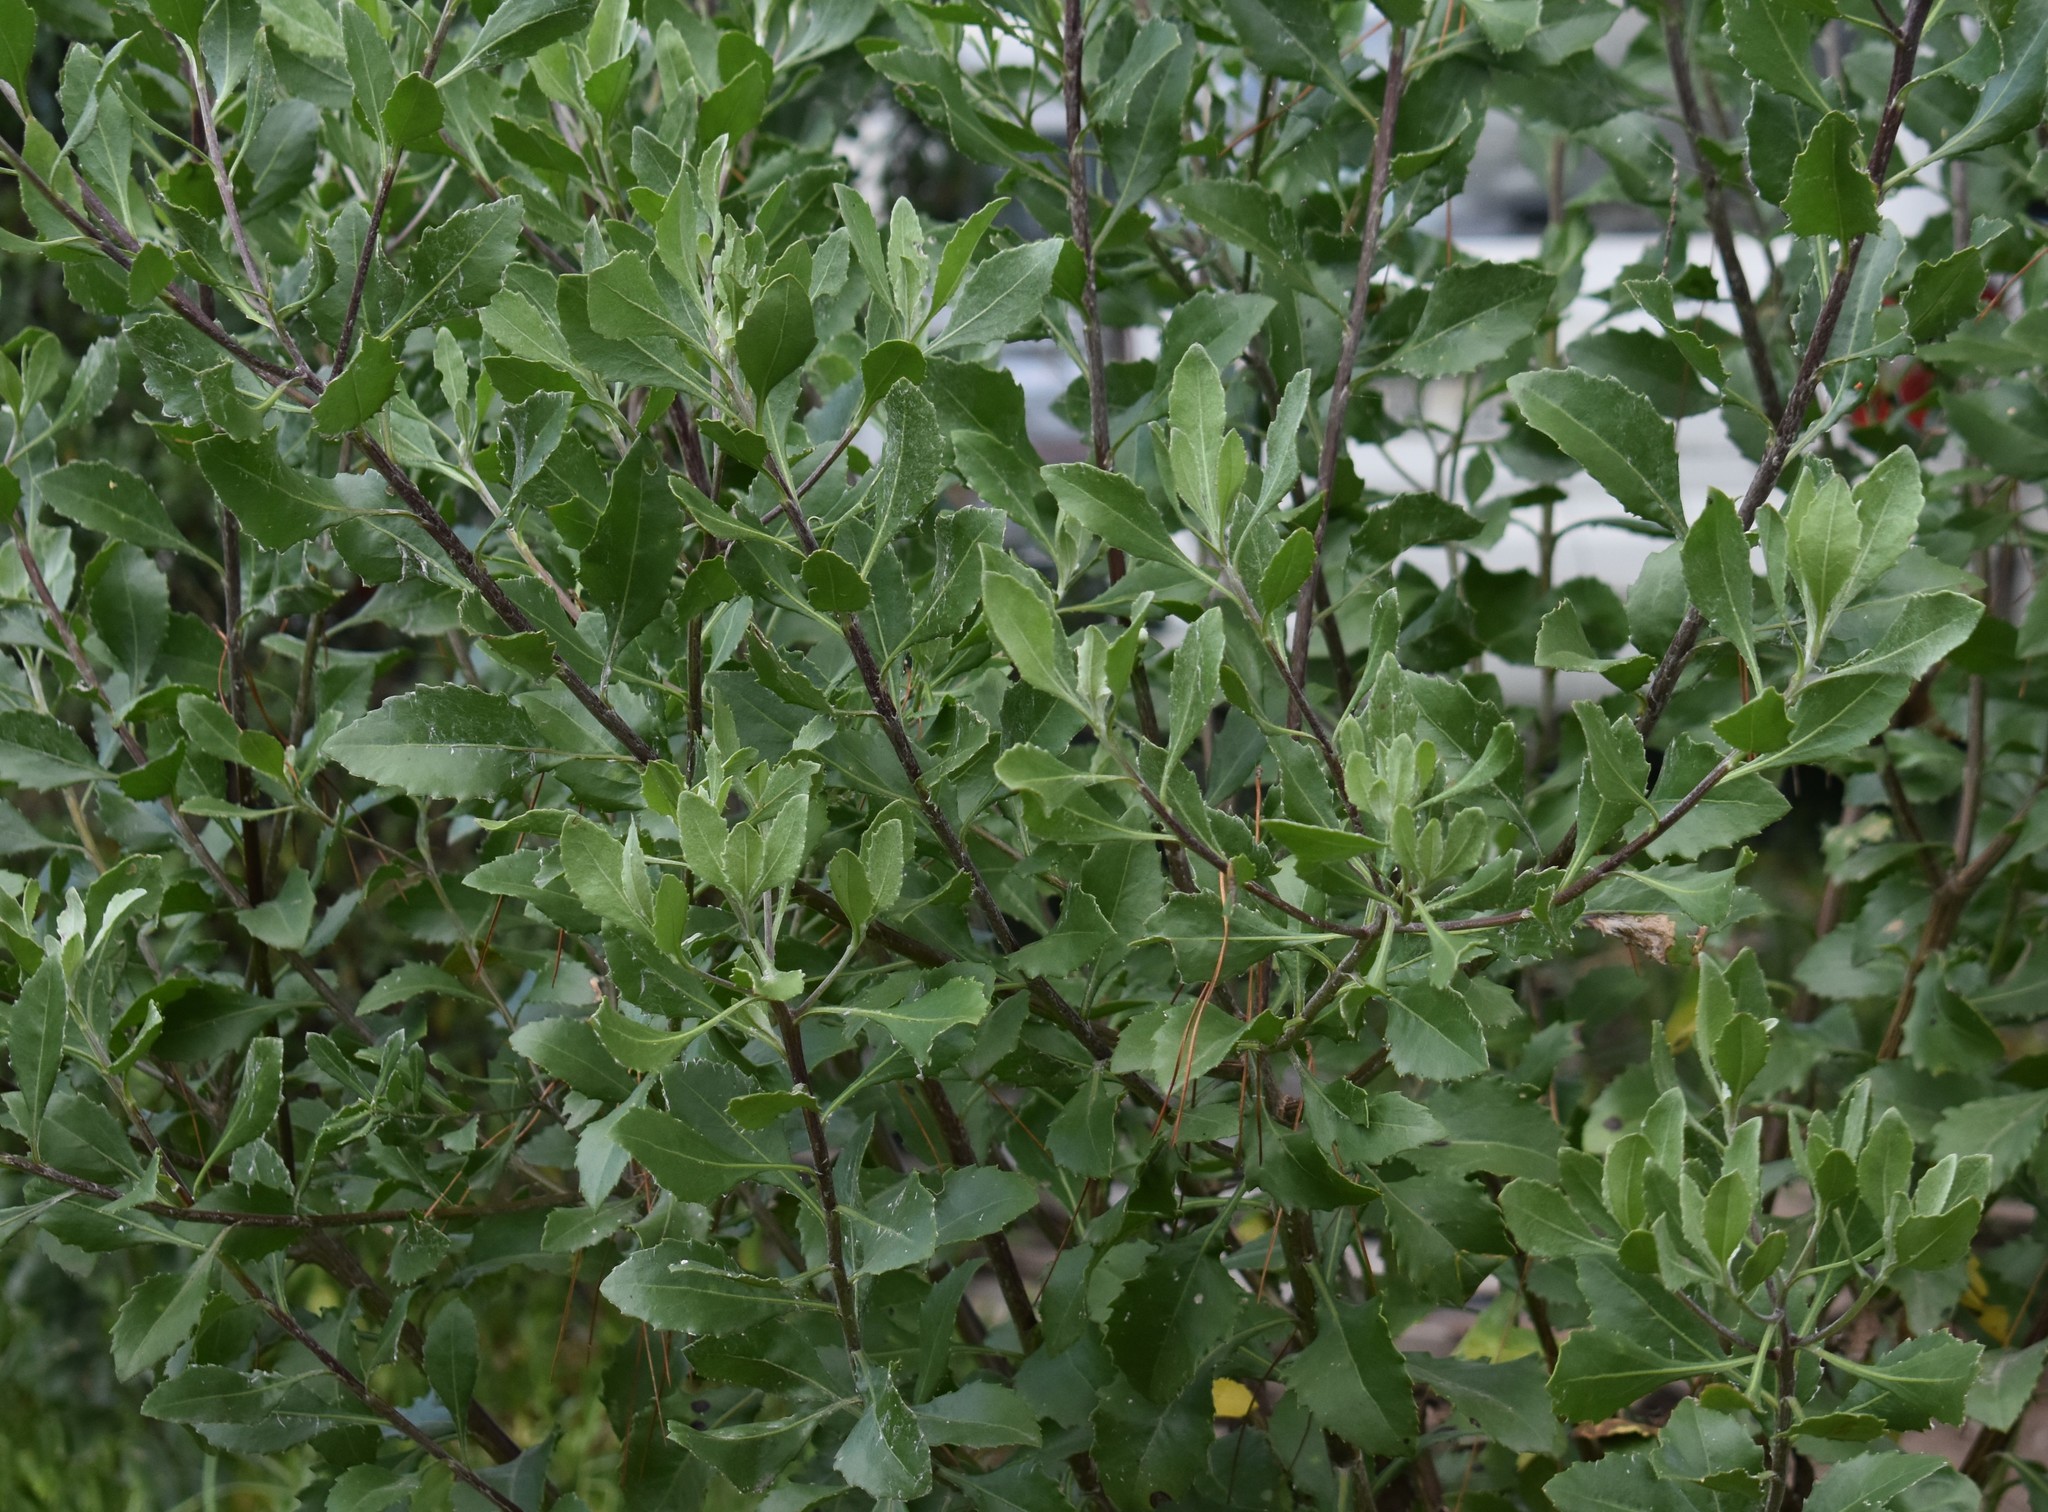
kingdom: Plantae
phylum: Tracheophyta
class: Magnoliopsida
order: Asterales
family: Asteraceae
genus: Osteospermum
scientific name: Osteospermum moniliferum
